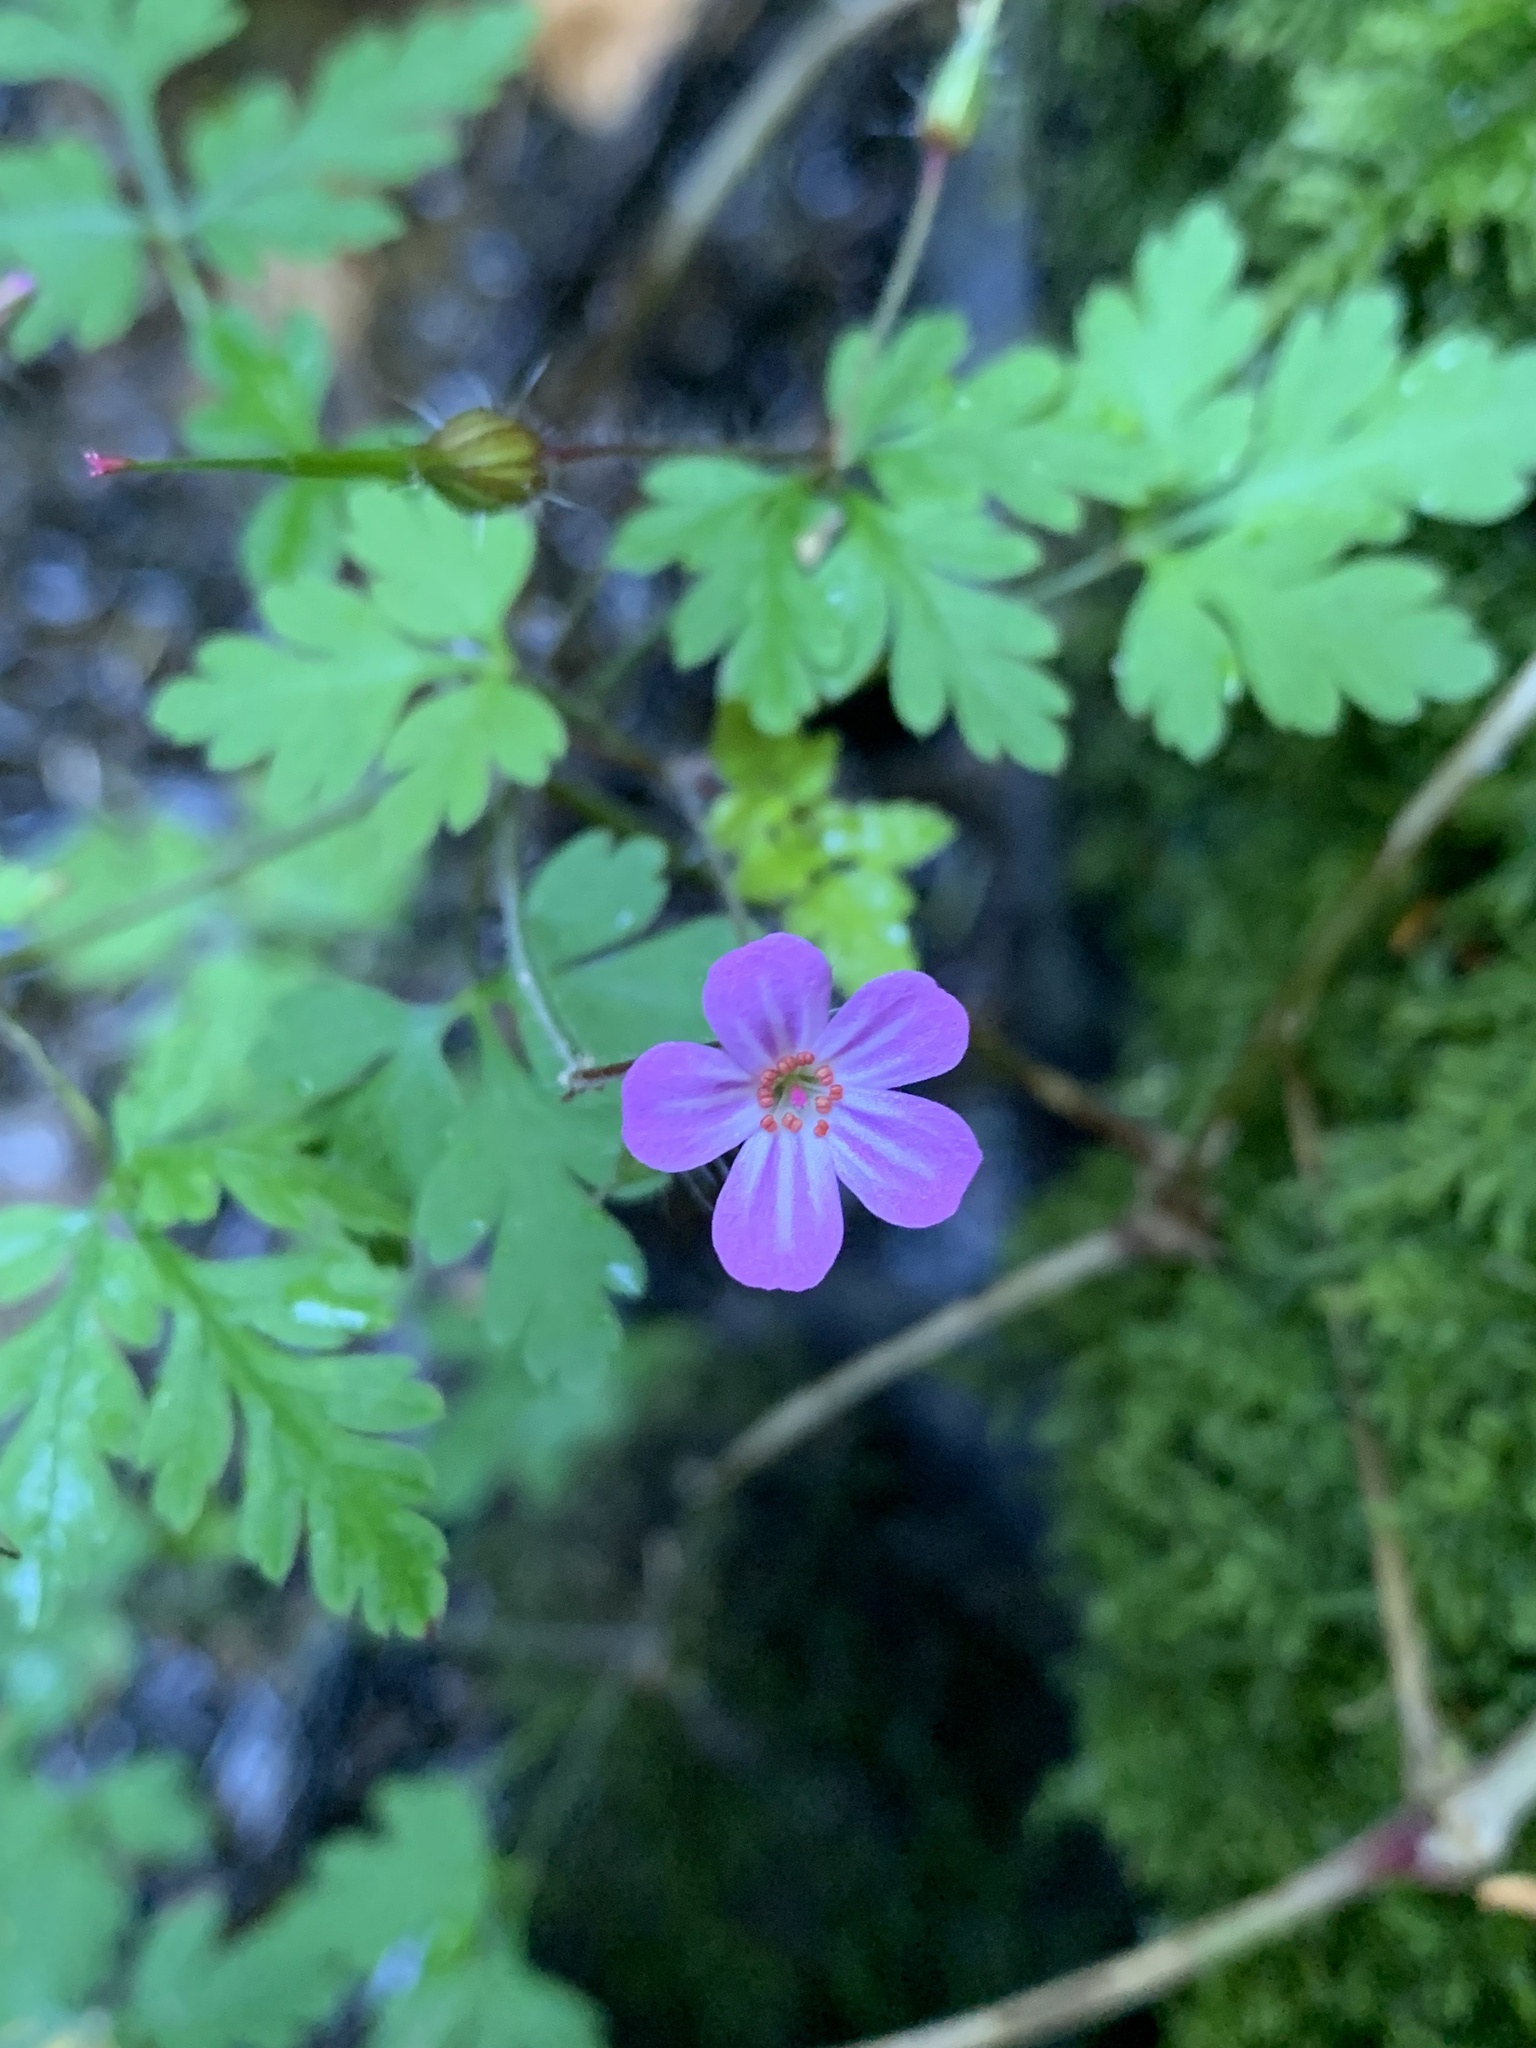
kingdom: Plantae
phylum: Tracheophyta
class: Magnoliopsida
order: Geraniales
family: Geraniaceae
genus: Geranium
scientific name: Geranium robertianum
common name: Herb-robert
